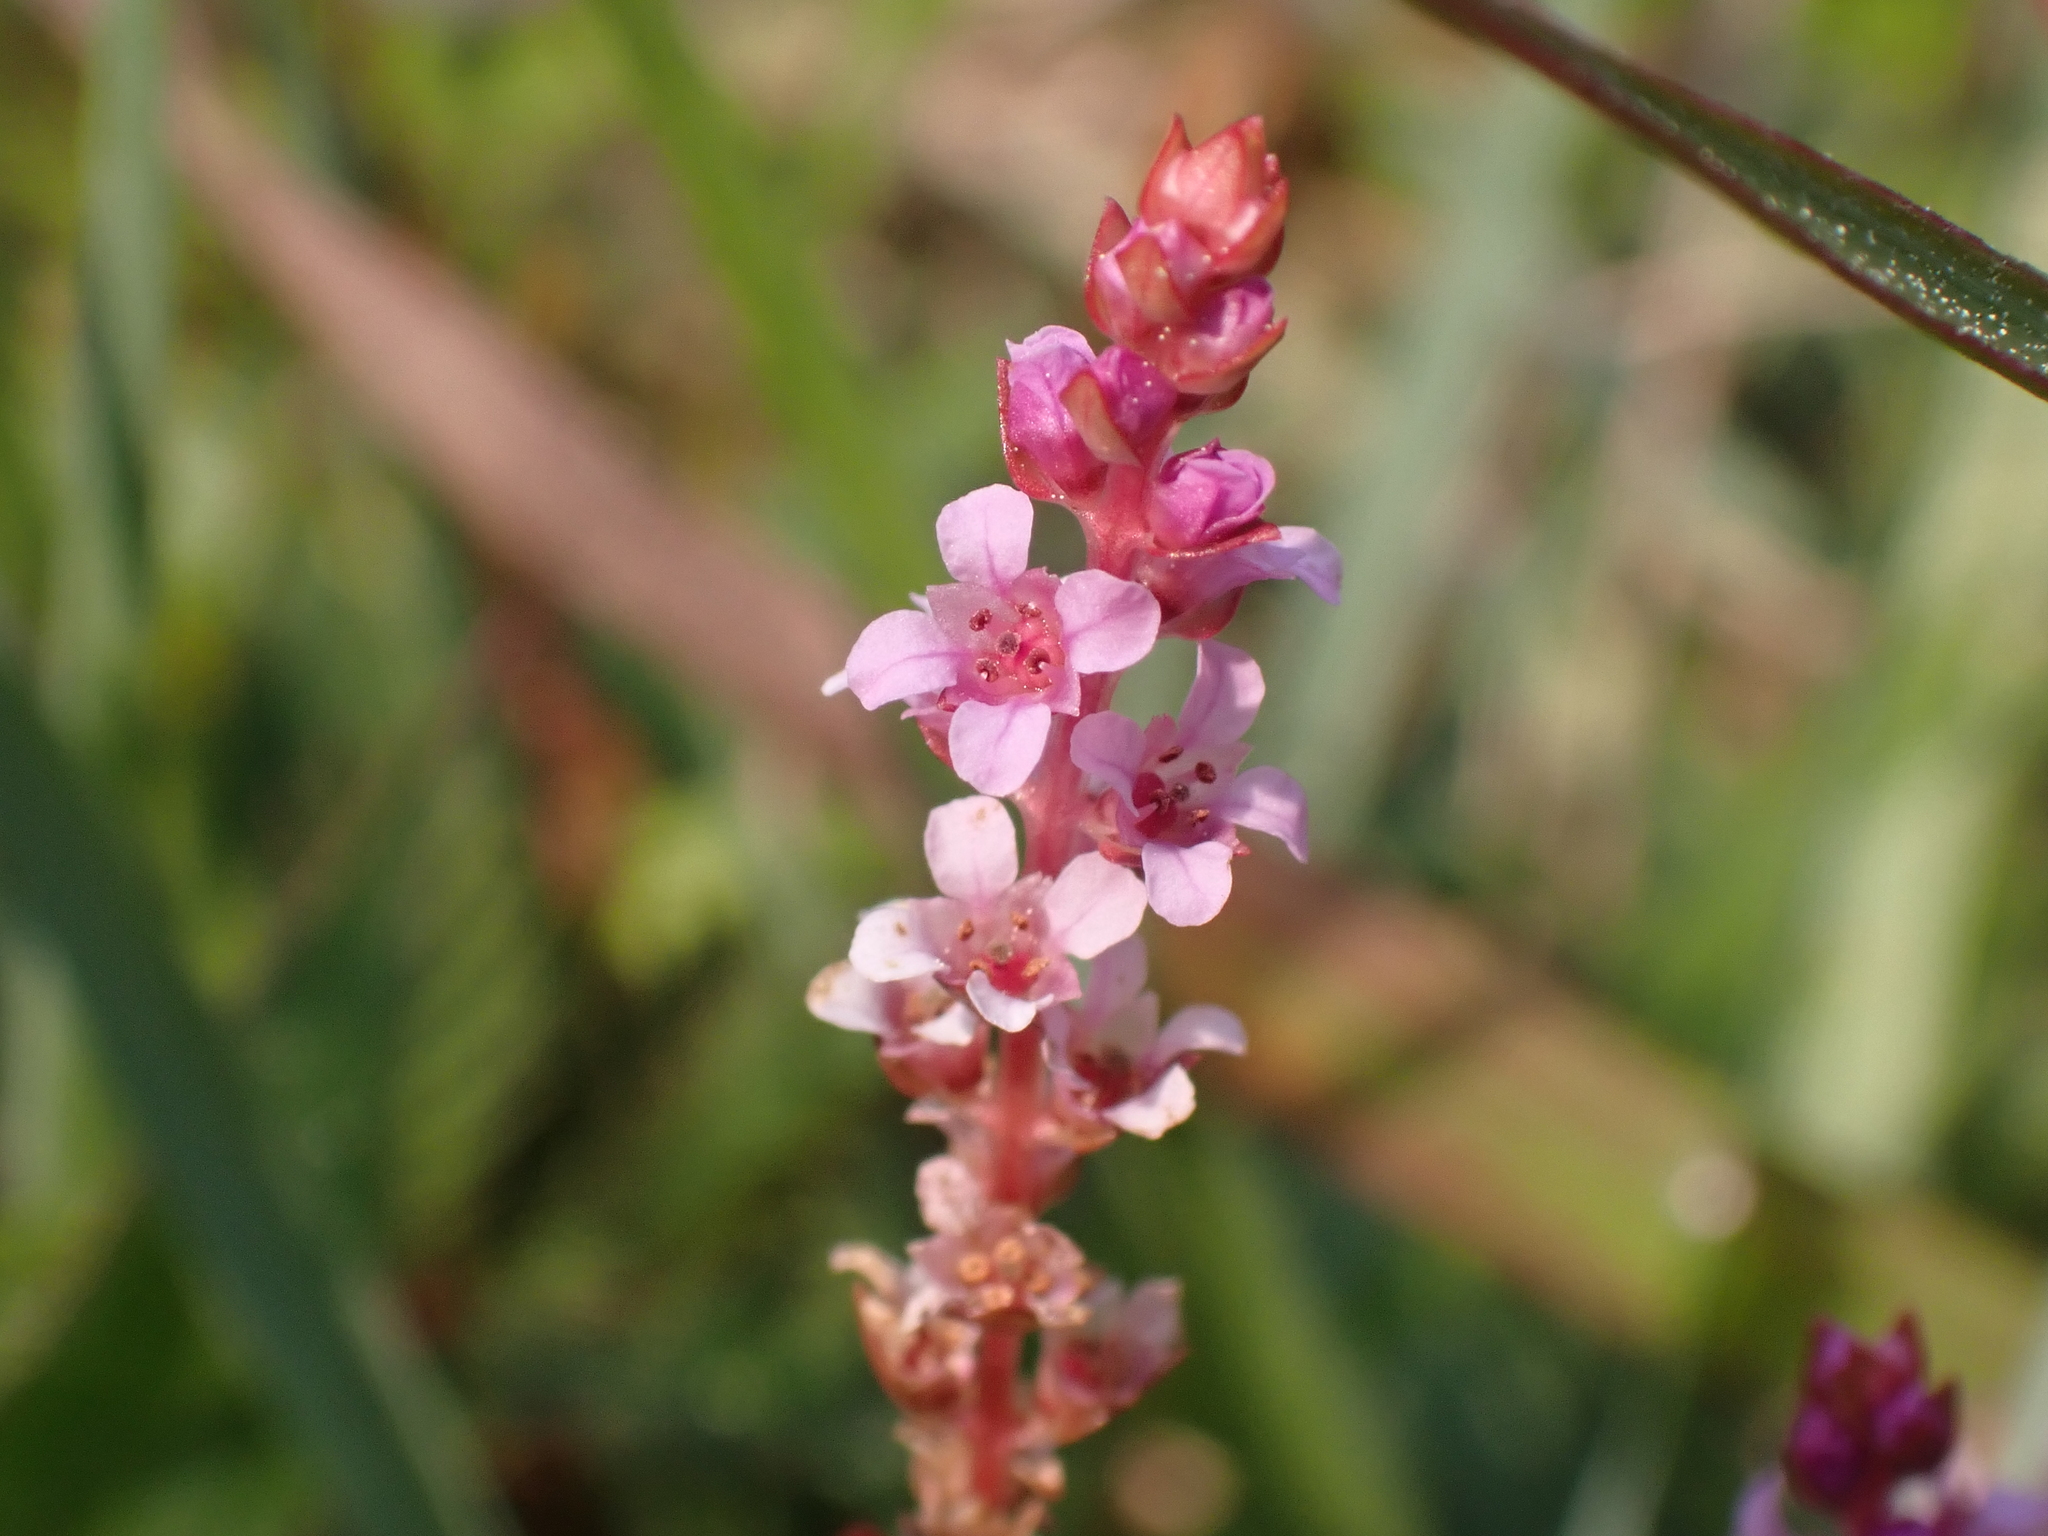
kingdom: Plantae
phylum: Tracheophyta
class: Magnoliopsida
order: Myrtales
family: Lythraceae
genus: Rotala
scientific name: Rotala rotundifolia
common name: Roundleaf toothcup
